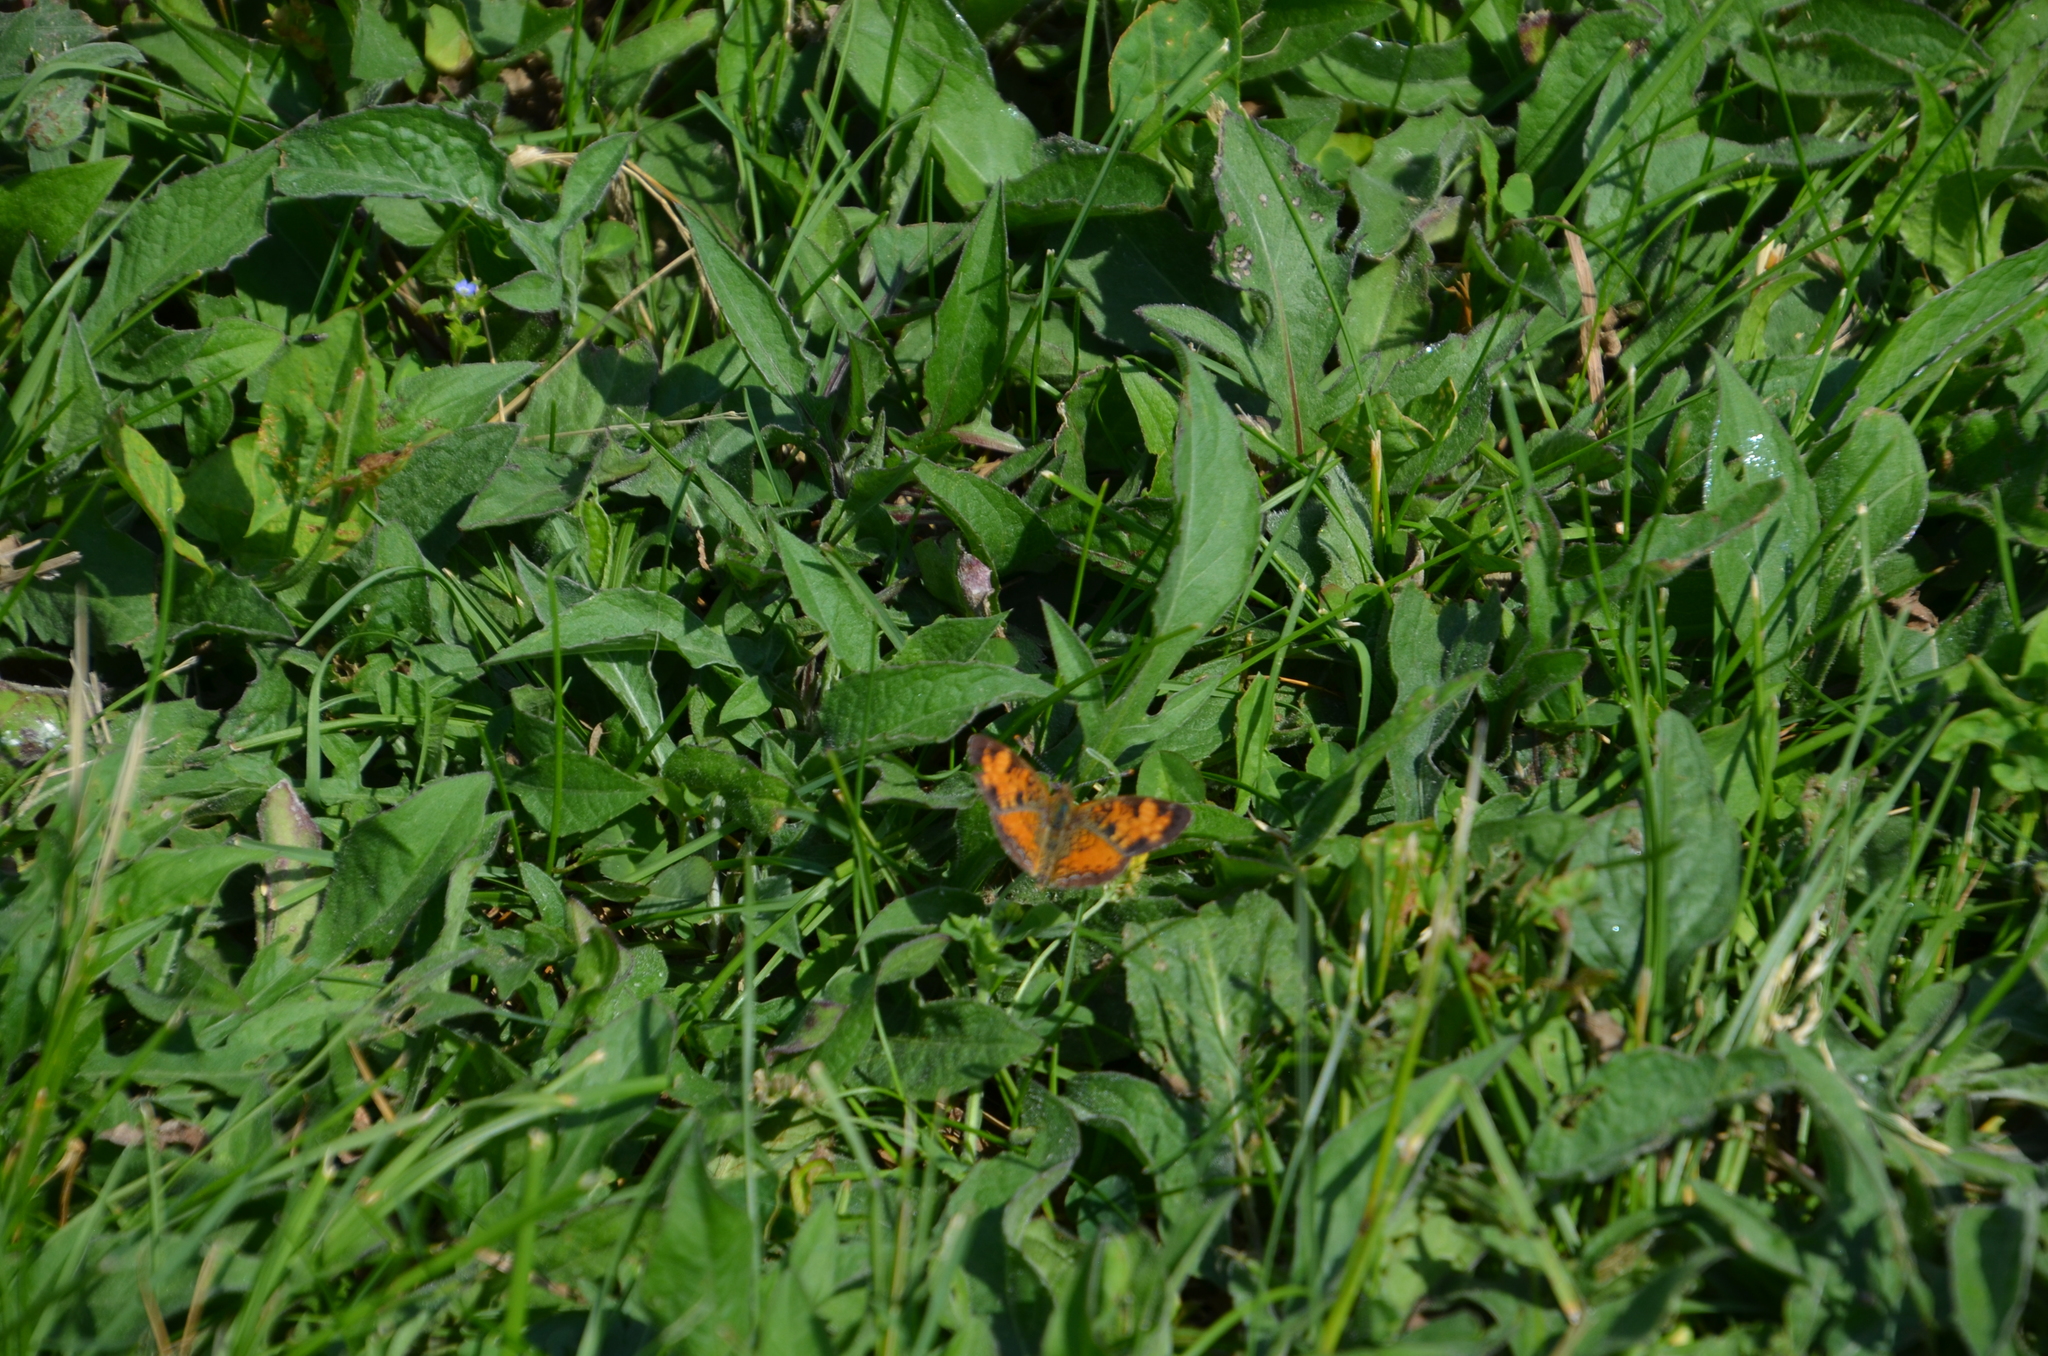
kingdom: Animalia
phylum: Arthropoda
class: Insecta
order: Lepidoptera
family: Nymphalidae
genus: Phyciodes
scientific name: Phyciodes tharos
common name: Pearl crescent
